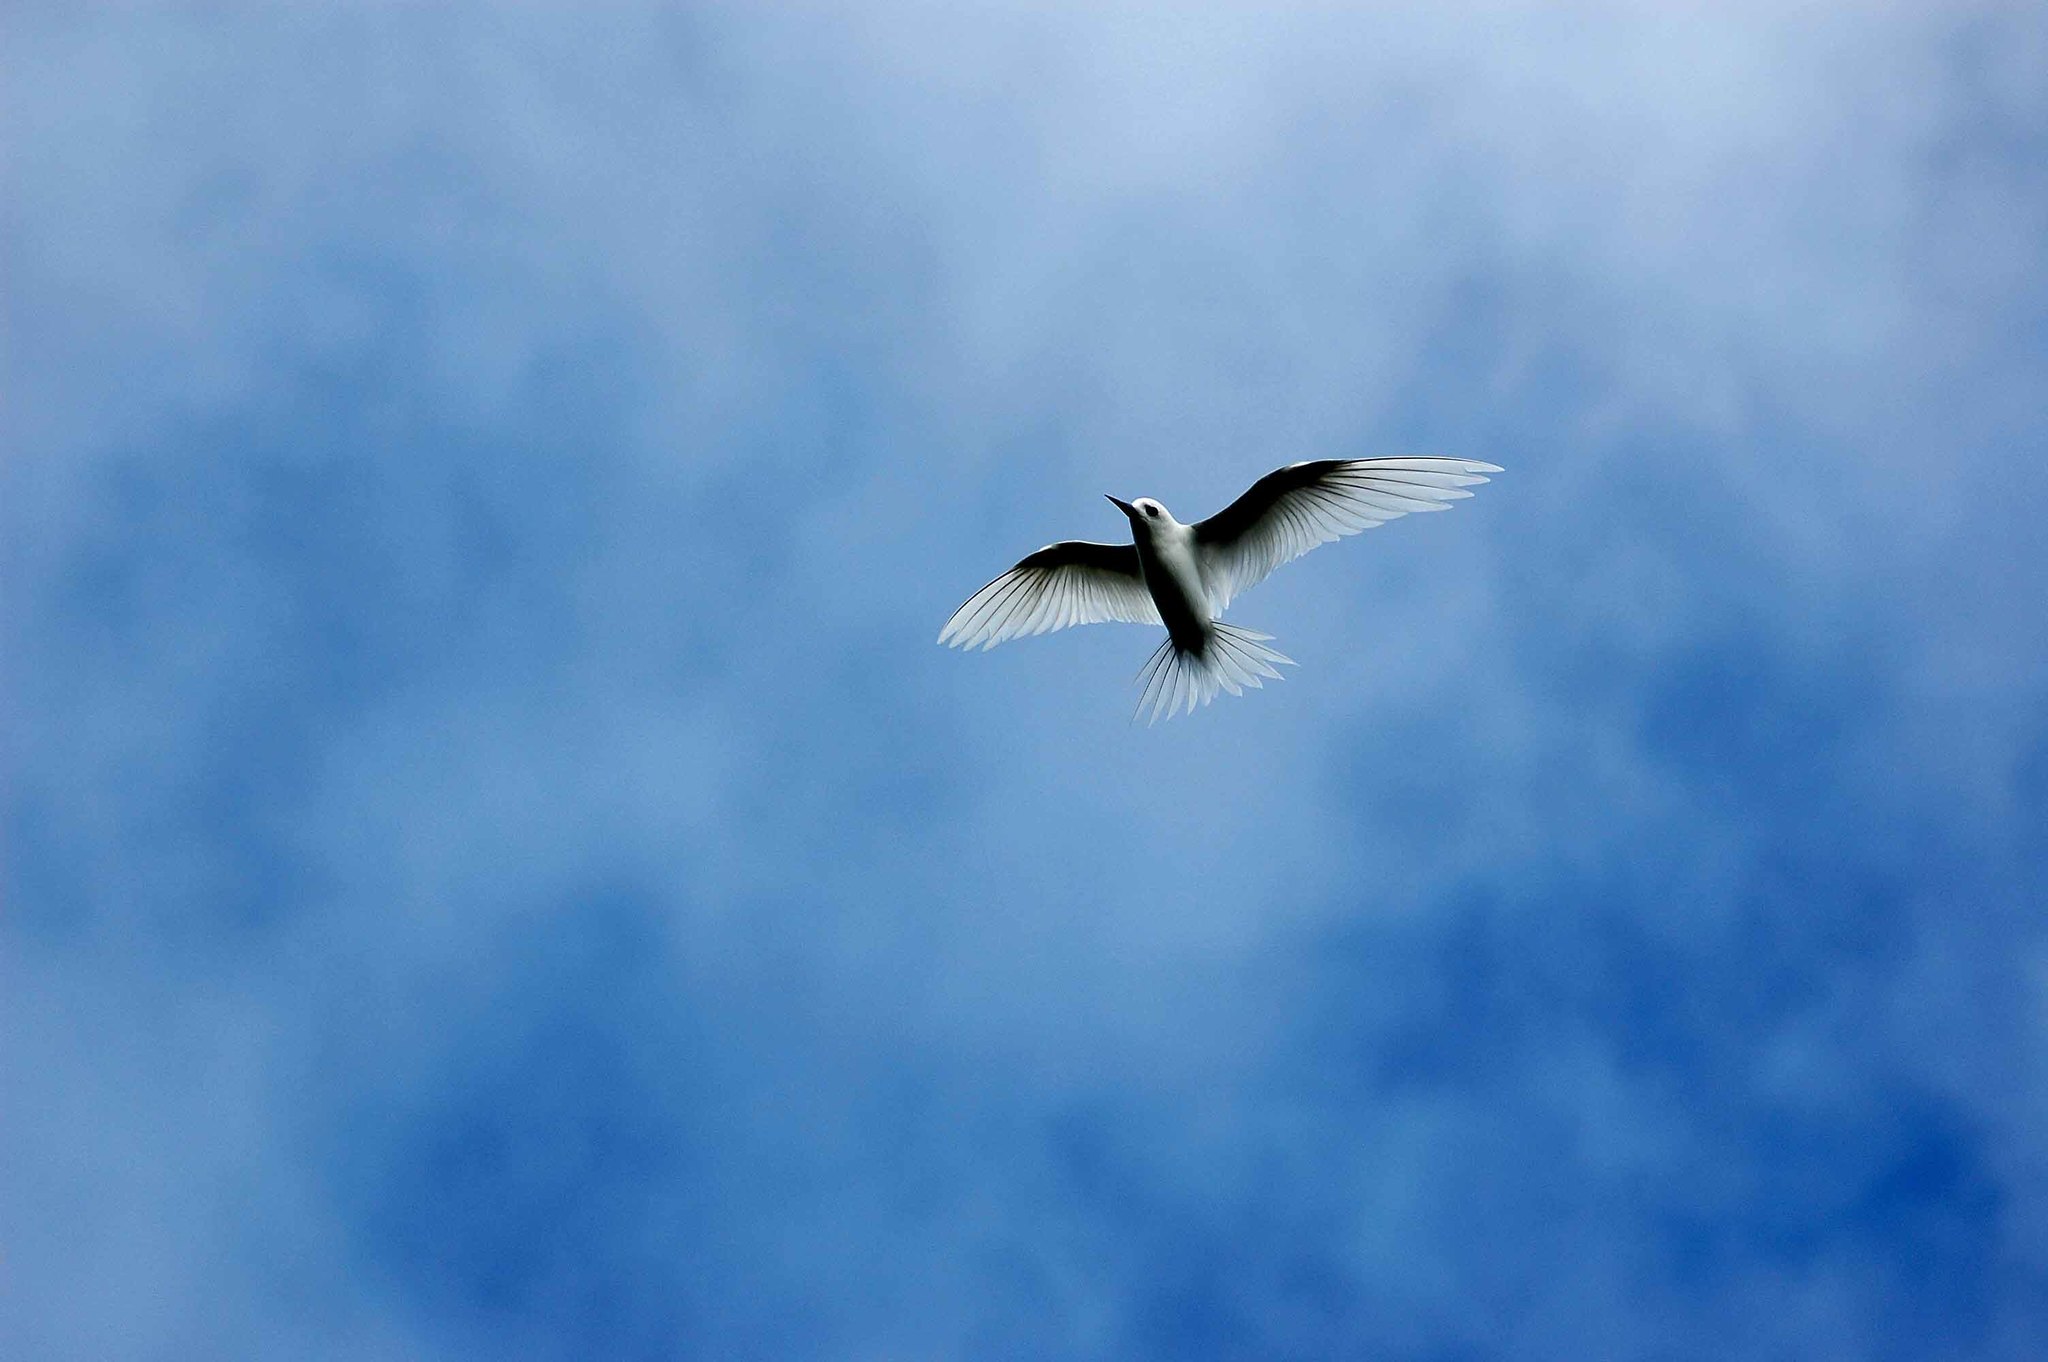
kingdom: Animalia
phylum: Chordata
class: Aves
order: Charadriiformes
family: Laridae
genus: Gygis
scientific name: Gygis alba
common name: White tern
